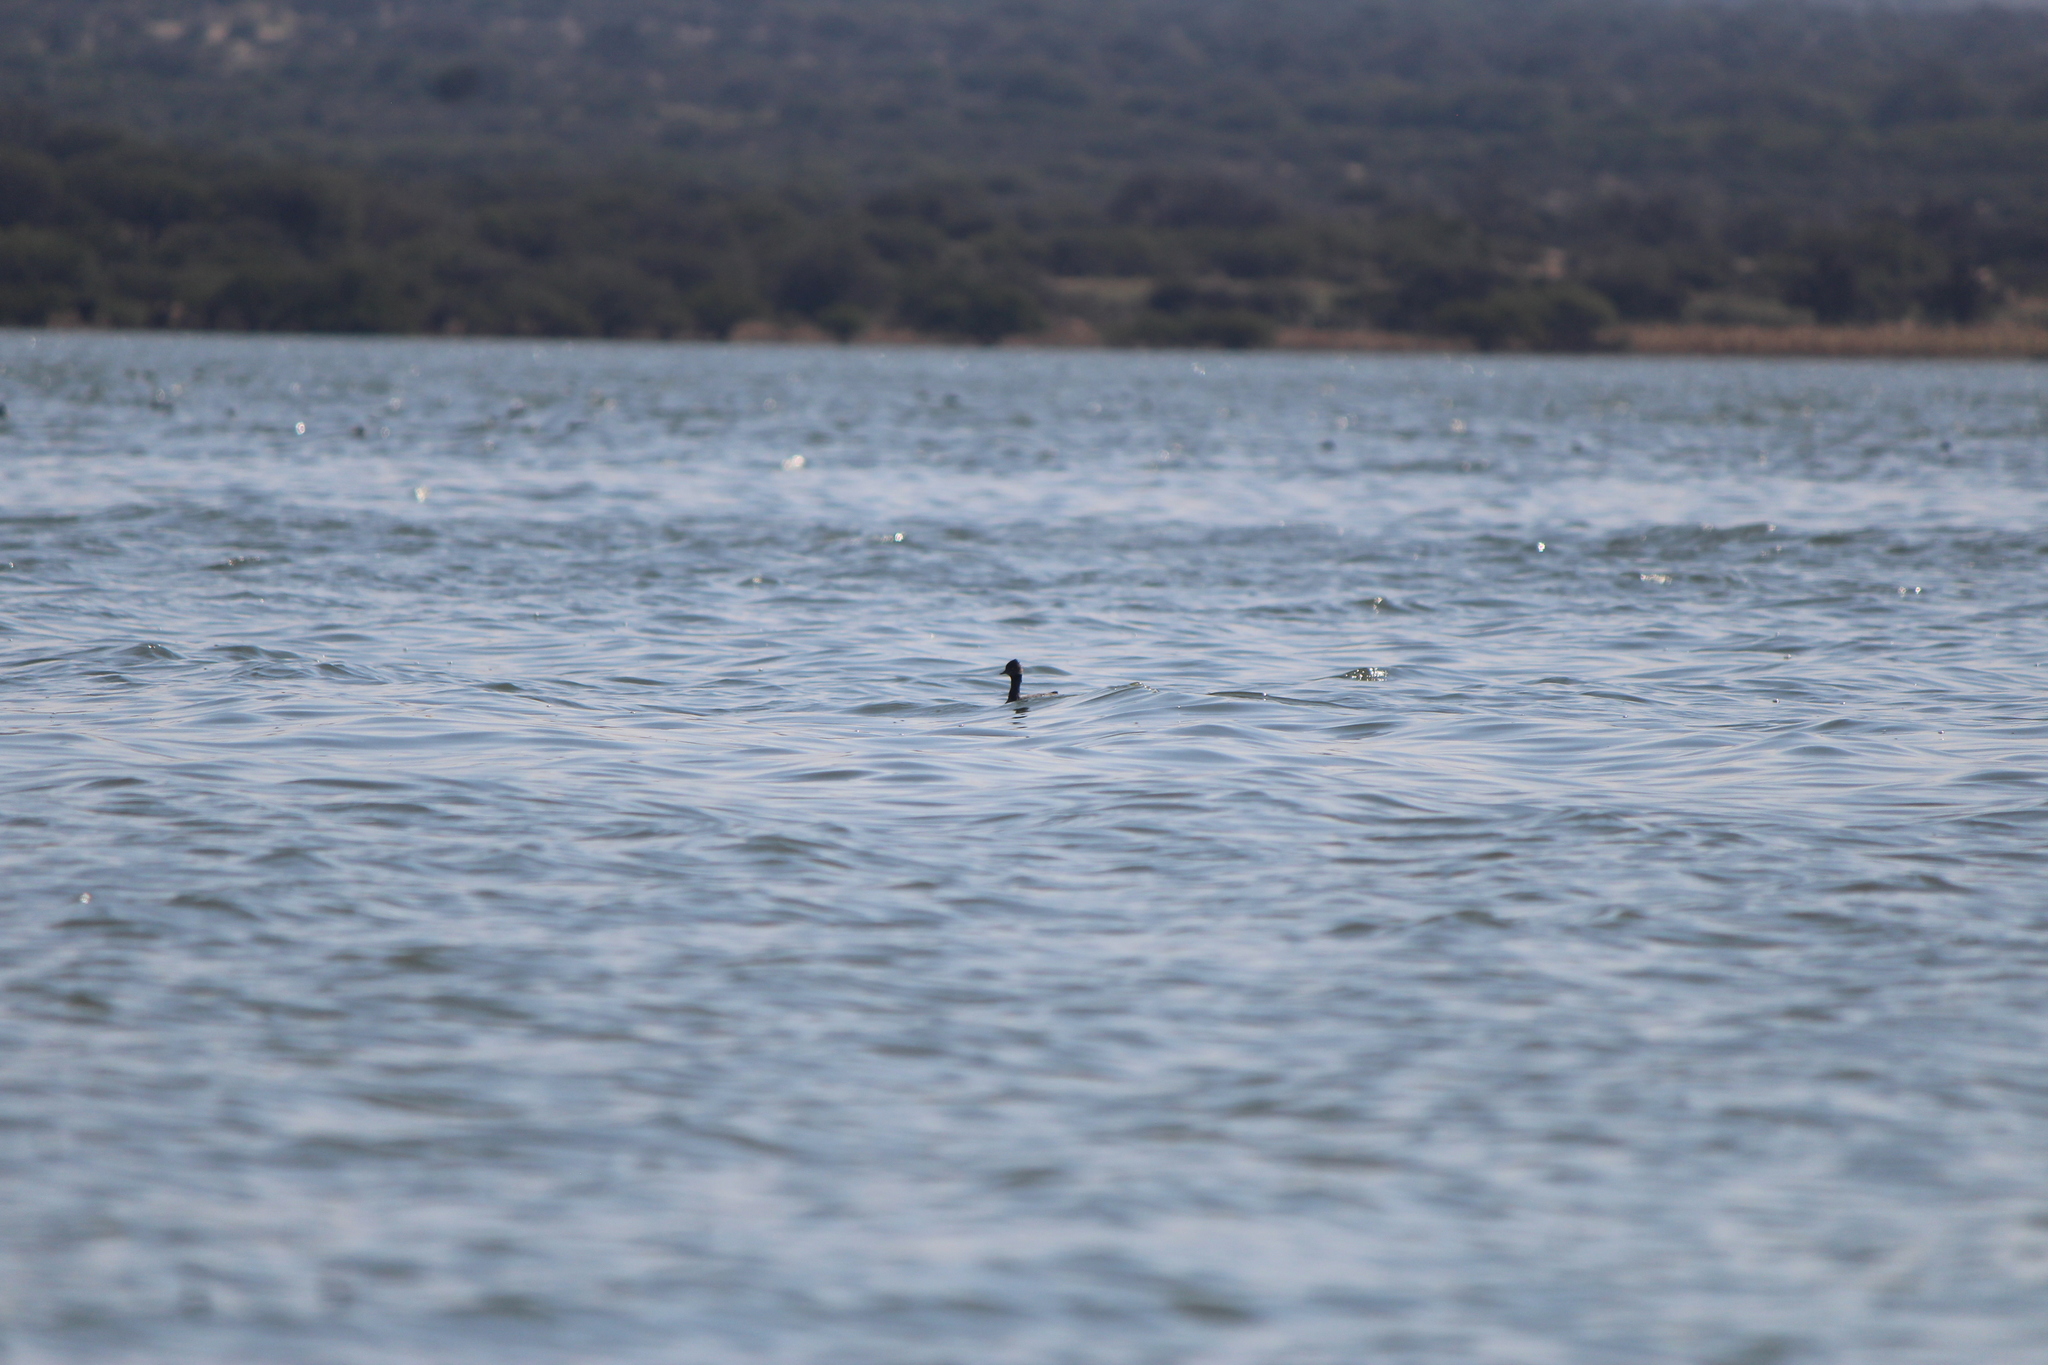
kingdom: Animalia
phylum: Chordata
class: Aves
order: Podicipediformes
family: Podicipedidae
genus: Podiceps
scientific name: Podiceps nigricollis
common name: Black-necked grebe
